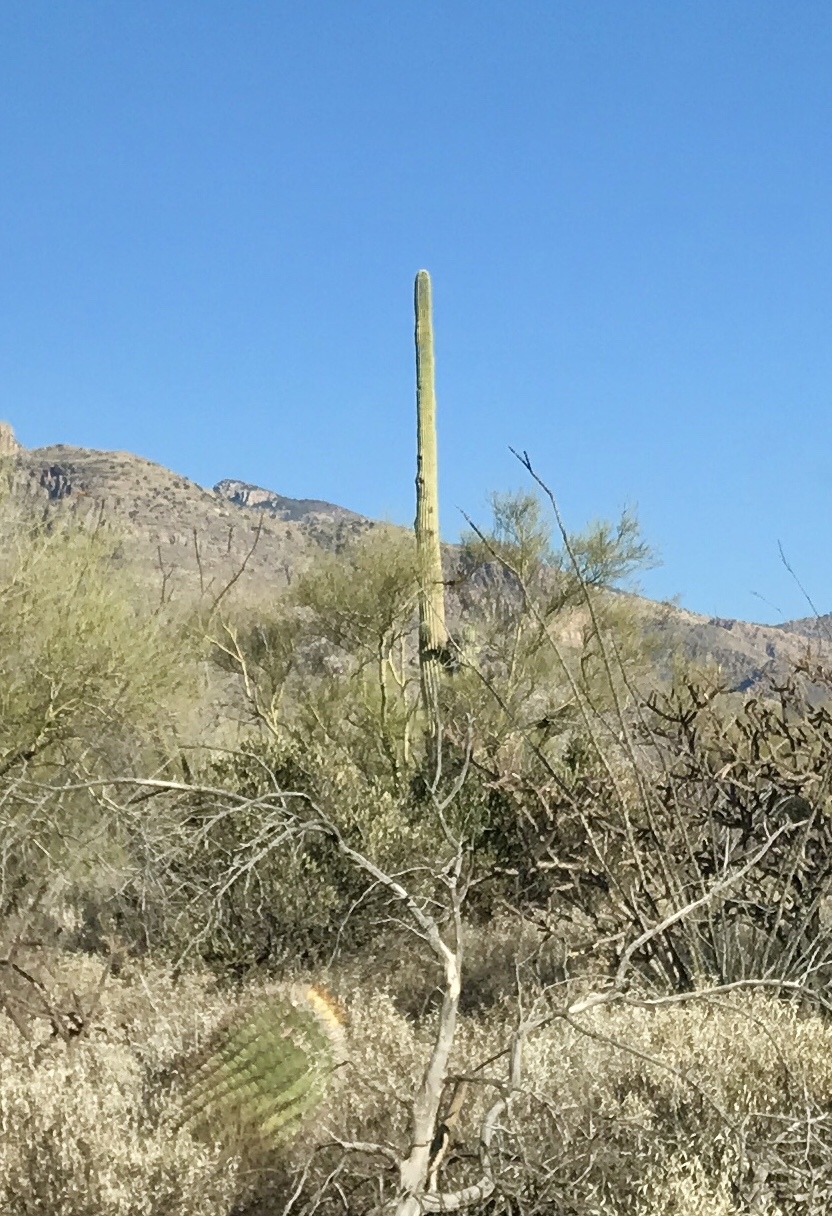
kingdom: Plantae
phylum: Tracheophyta
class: Magnoliopsida
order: Caryophyllales
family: Cactaceae
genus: Carnegiea
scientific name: Carnegiea gigantea
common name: Saguaro
